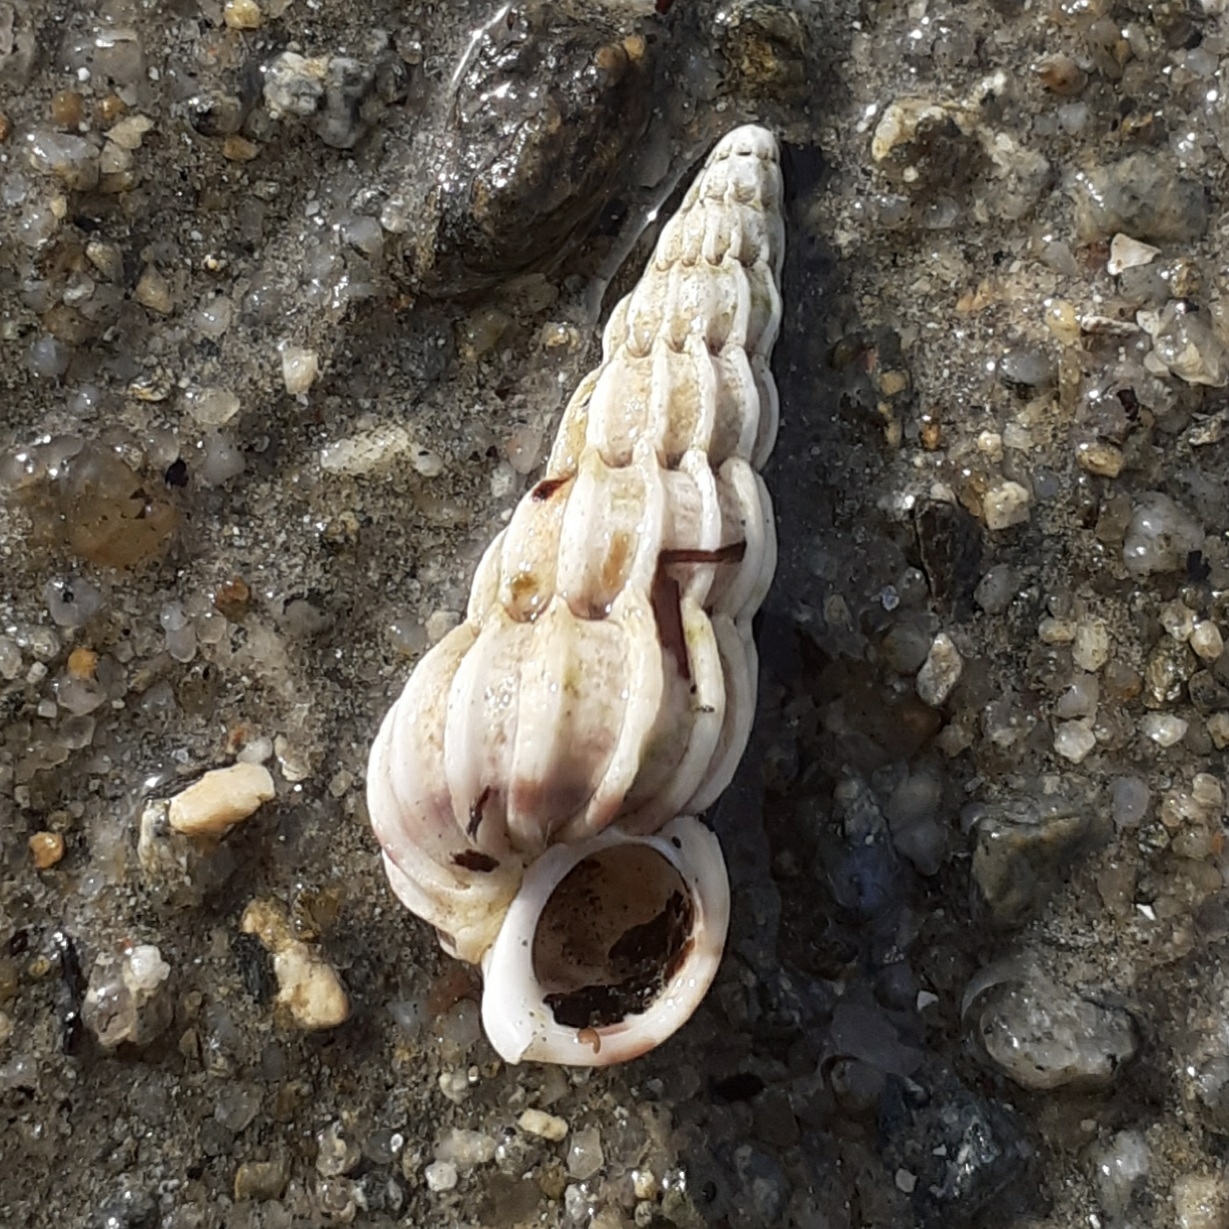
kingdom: Animalia
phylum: Mollusca
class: Gastropoda
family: Epitoniidae
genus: Epitonium
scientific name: Epitonium clathrus
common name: Common wentletrap
